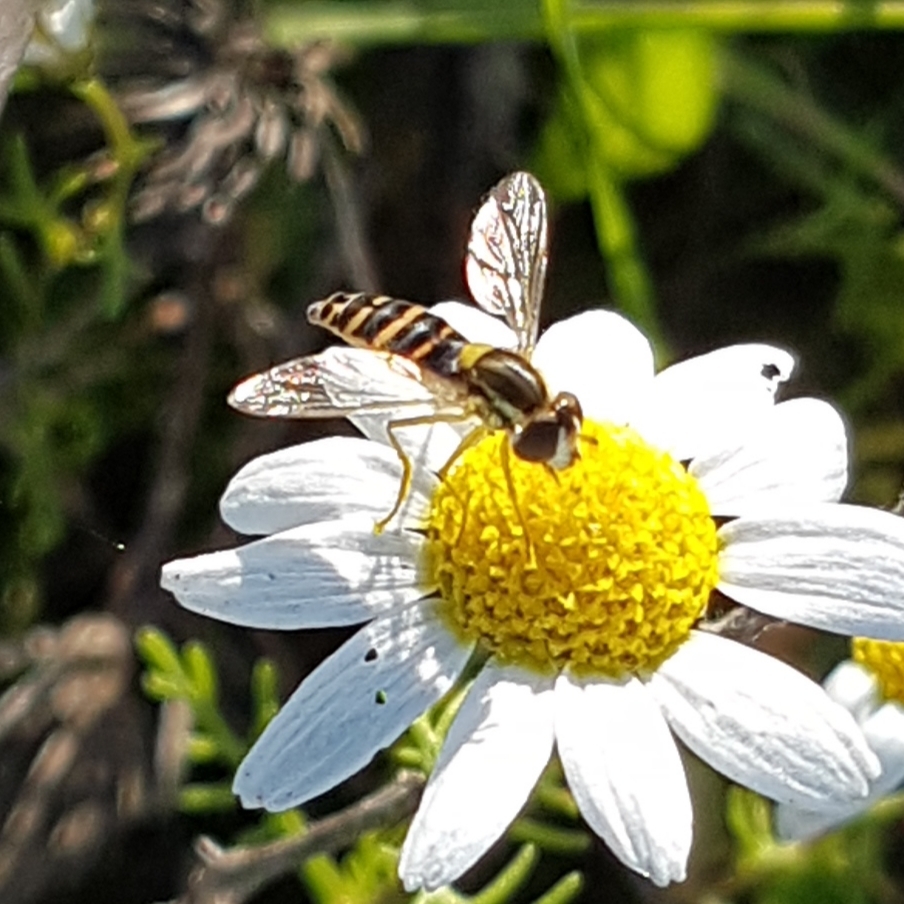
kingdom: Animalia
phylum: Arthropoda
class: Insecta
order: Diptera
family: Syrphidae
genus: Sphaerophoria
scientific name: Sphaerophoria
